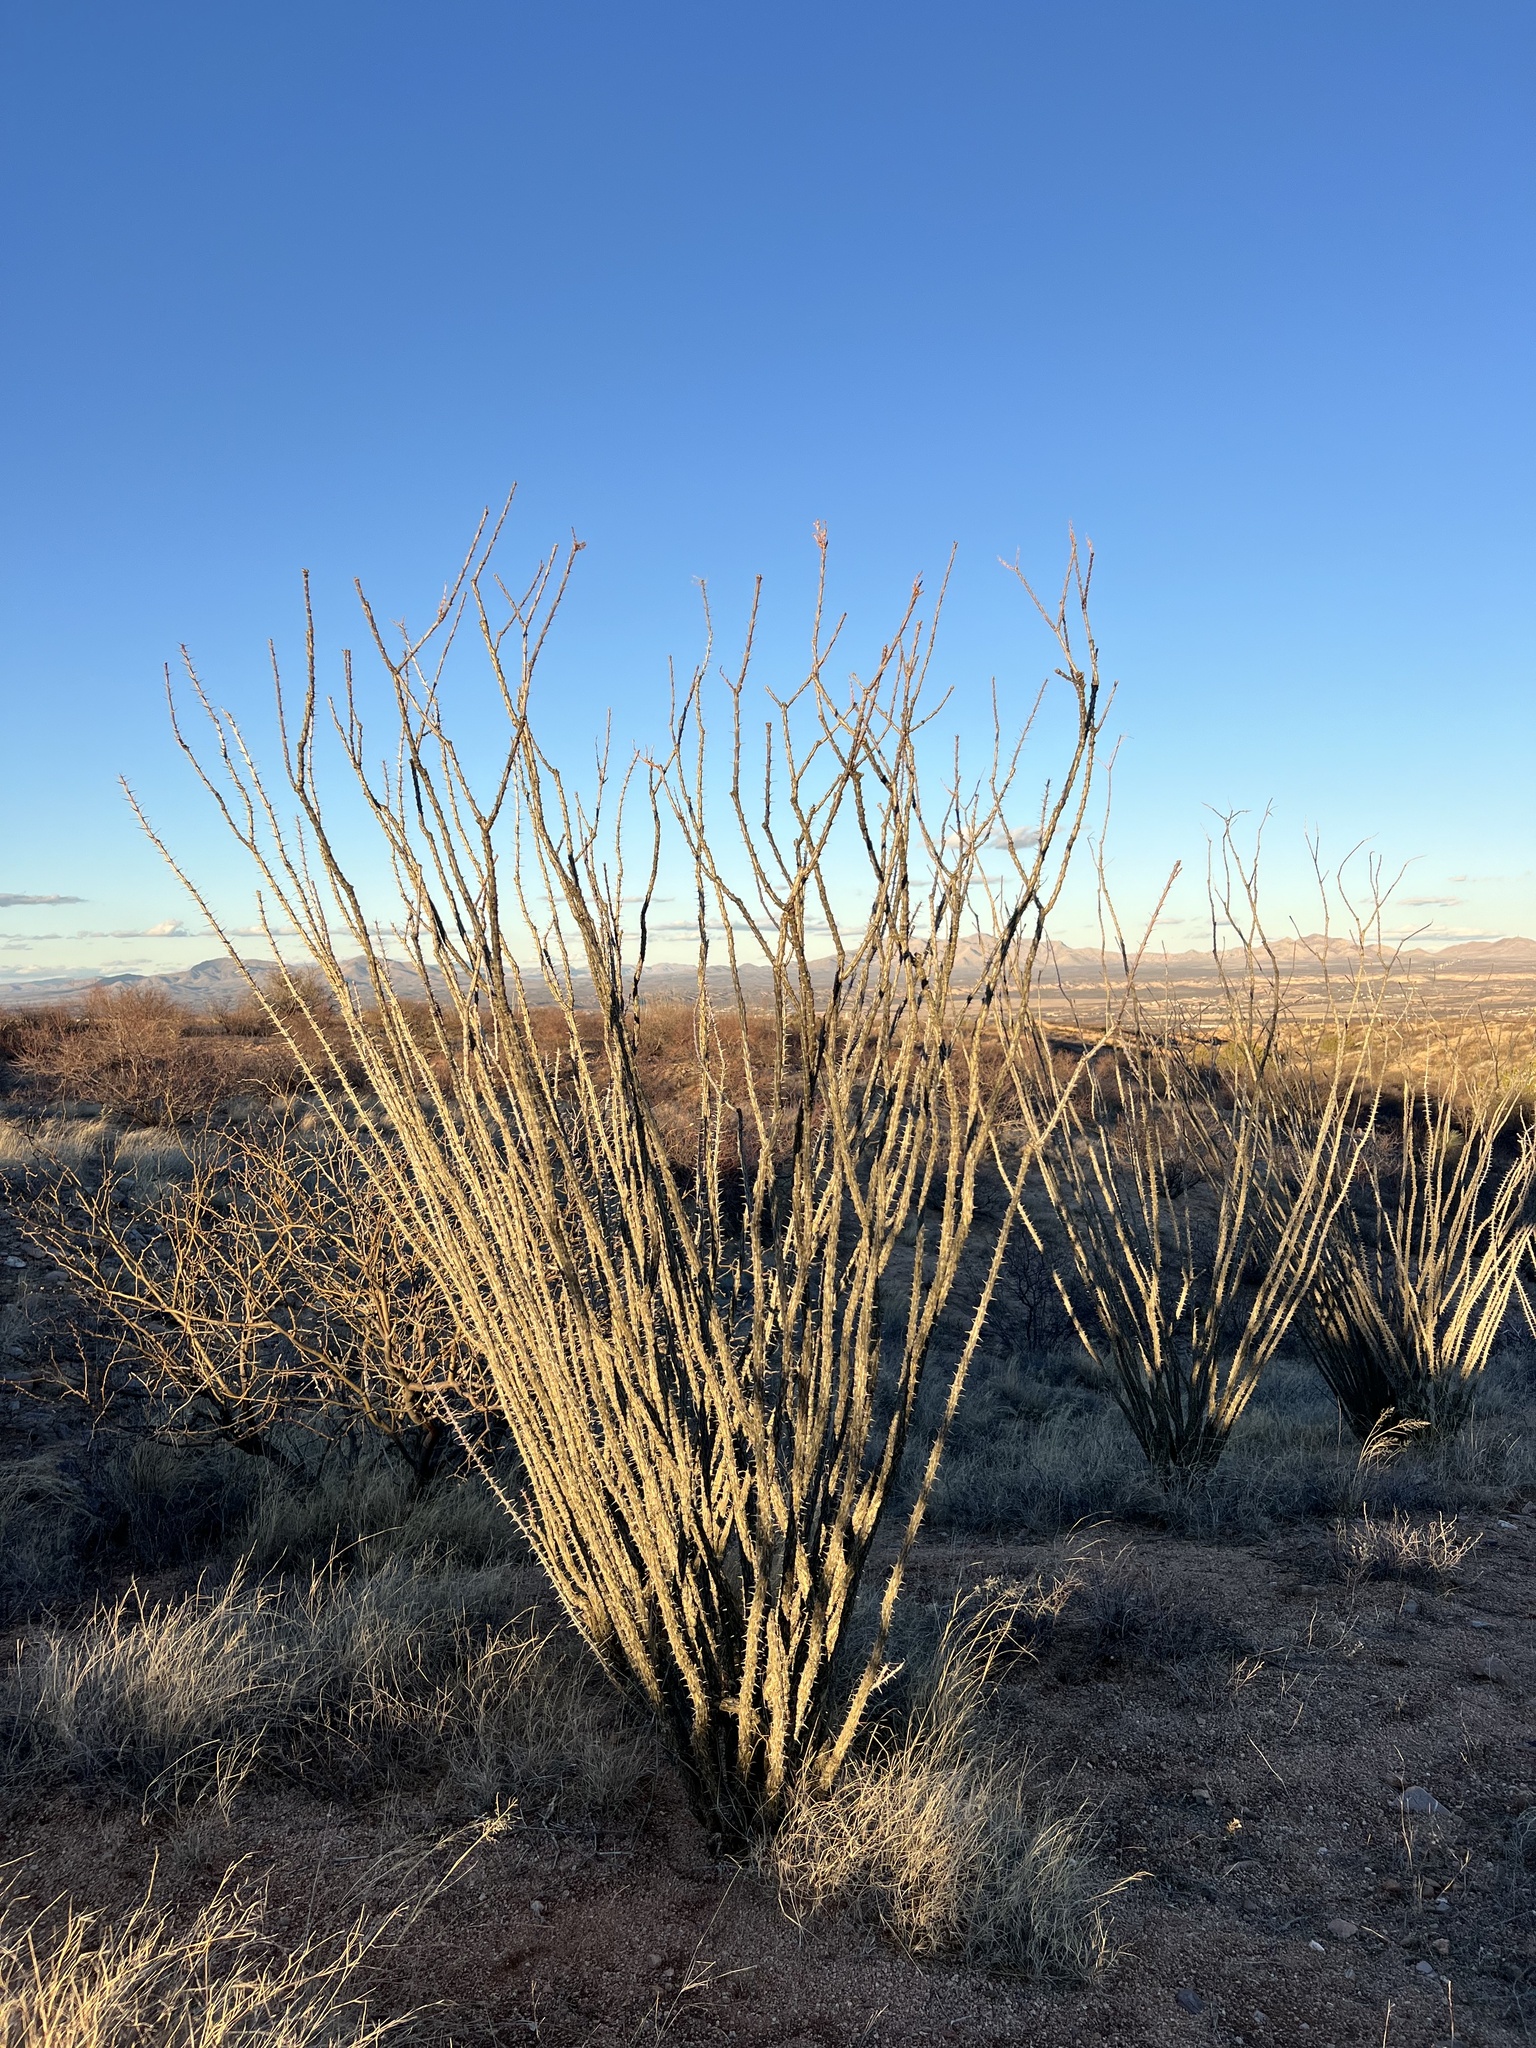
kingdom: Plantae
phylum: Tracheophyta
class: Magnoliopsida
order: Ericales
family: Fouquieriaceae
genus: Fouquieria
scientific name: Fouquieria splendens
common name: Vine-cactus
